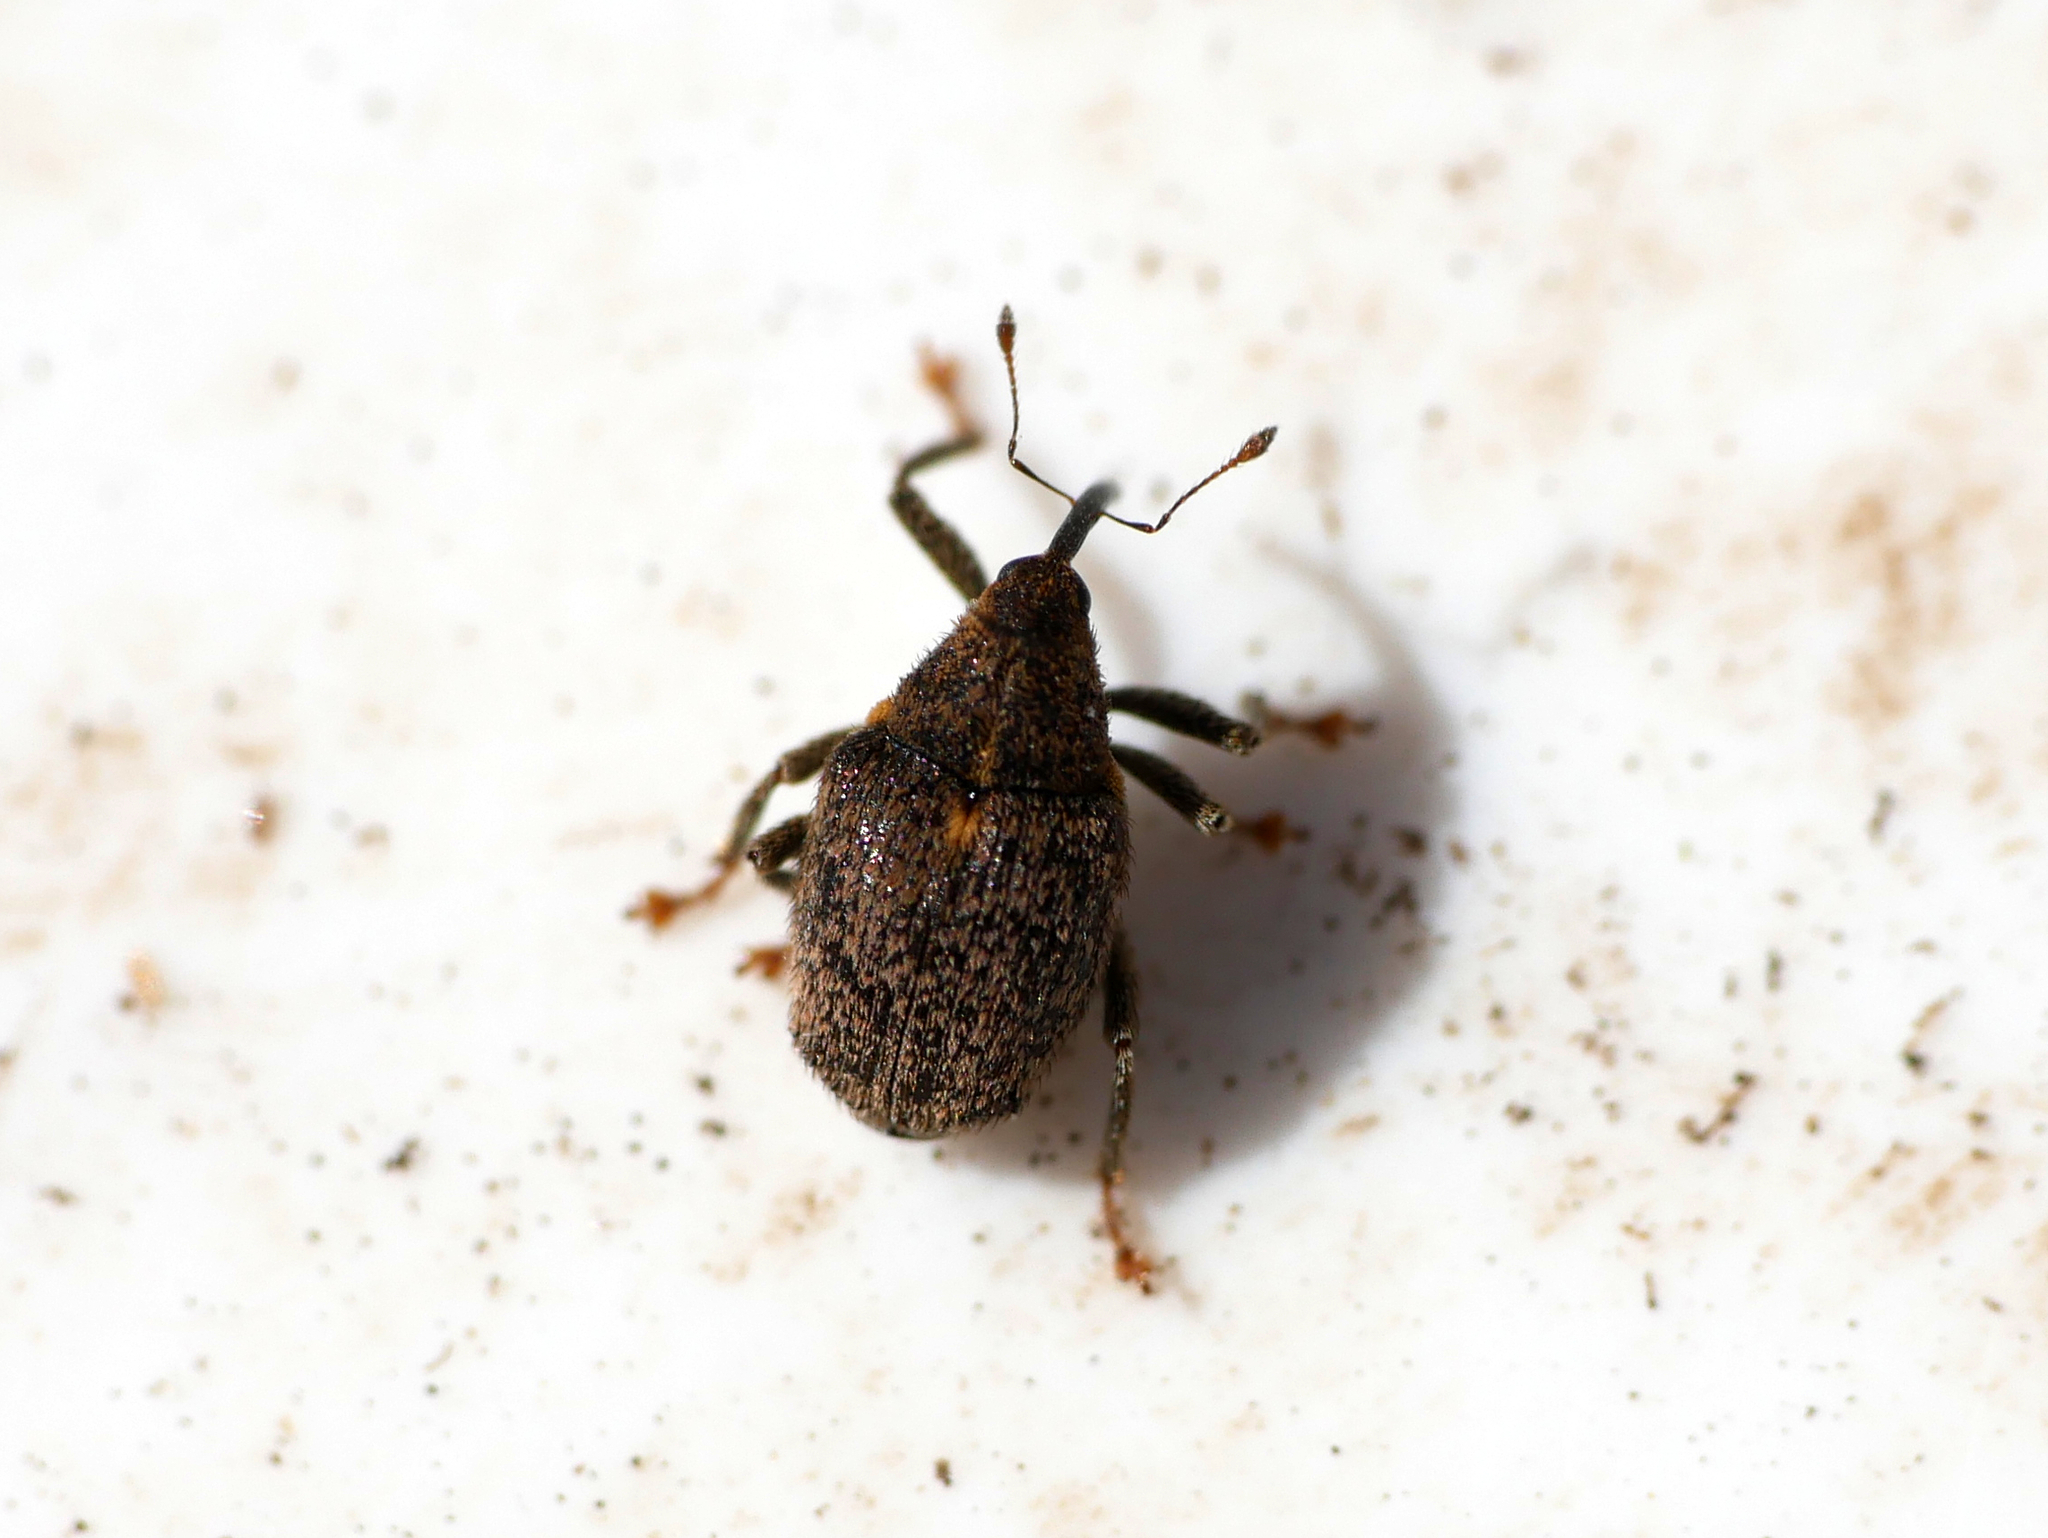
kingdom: Animalia
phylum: Arthropoda
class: Insecta
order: Coleoptera
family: Curculionidae
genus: Ceutorhynchus
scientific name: Ceutorhynchus pallidactylus
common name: Cabbage stem weavil
